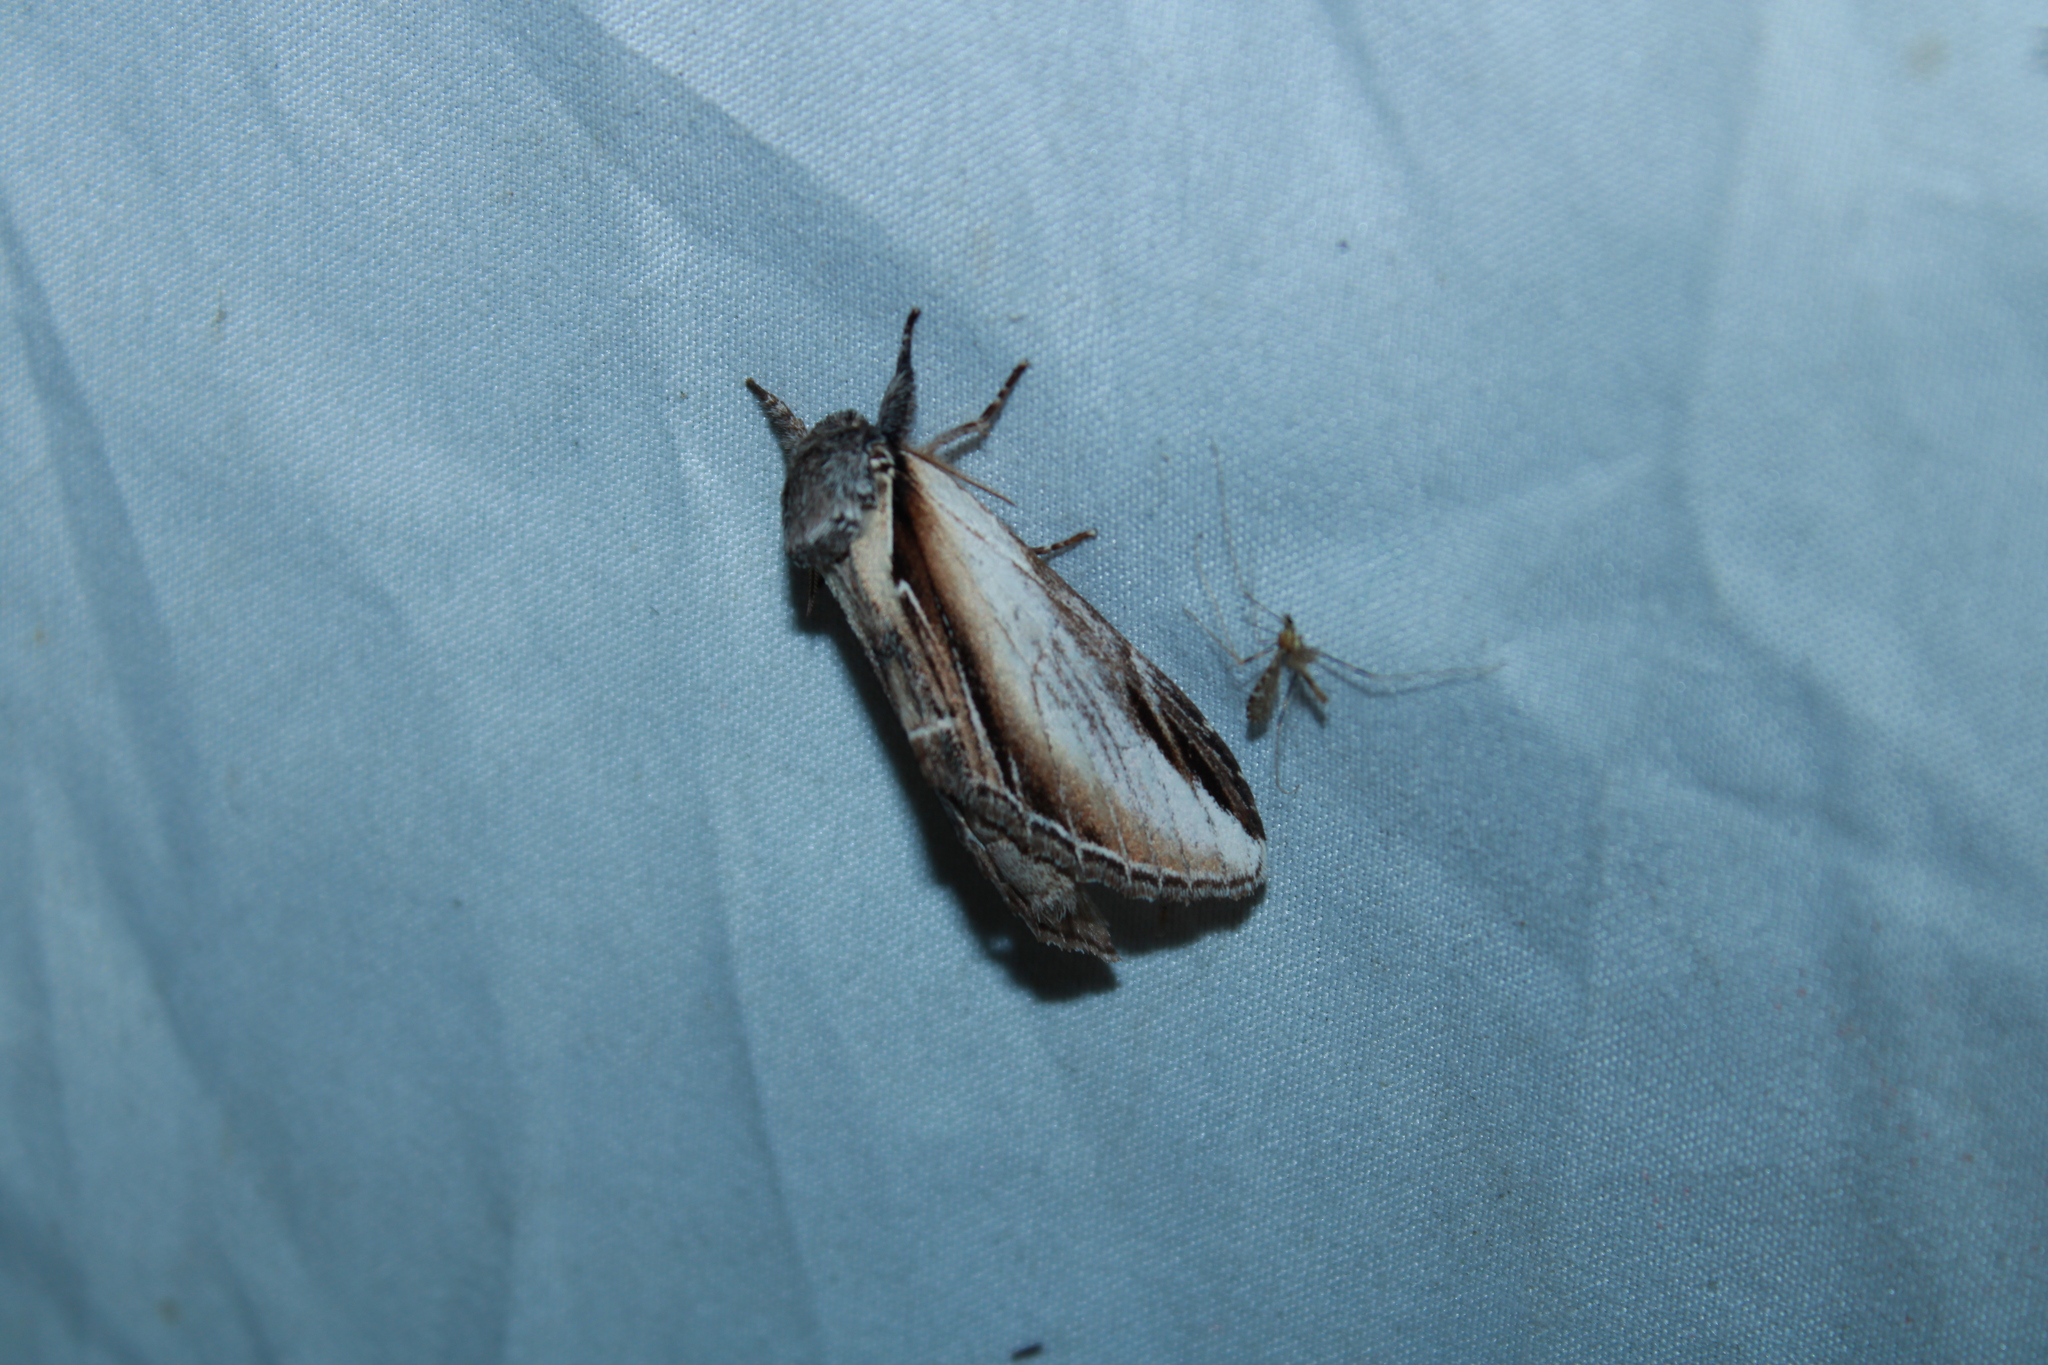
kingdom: Animalia
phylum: Arthropoda
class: Insecta
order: Lepidoptera
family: Notodontidae
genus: Pheosia
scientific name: Pheosia rimosa
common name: Black-rimmed prominent
